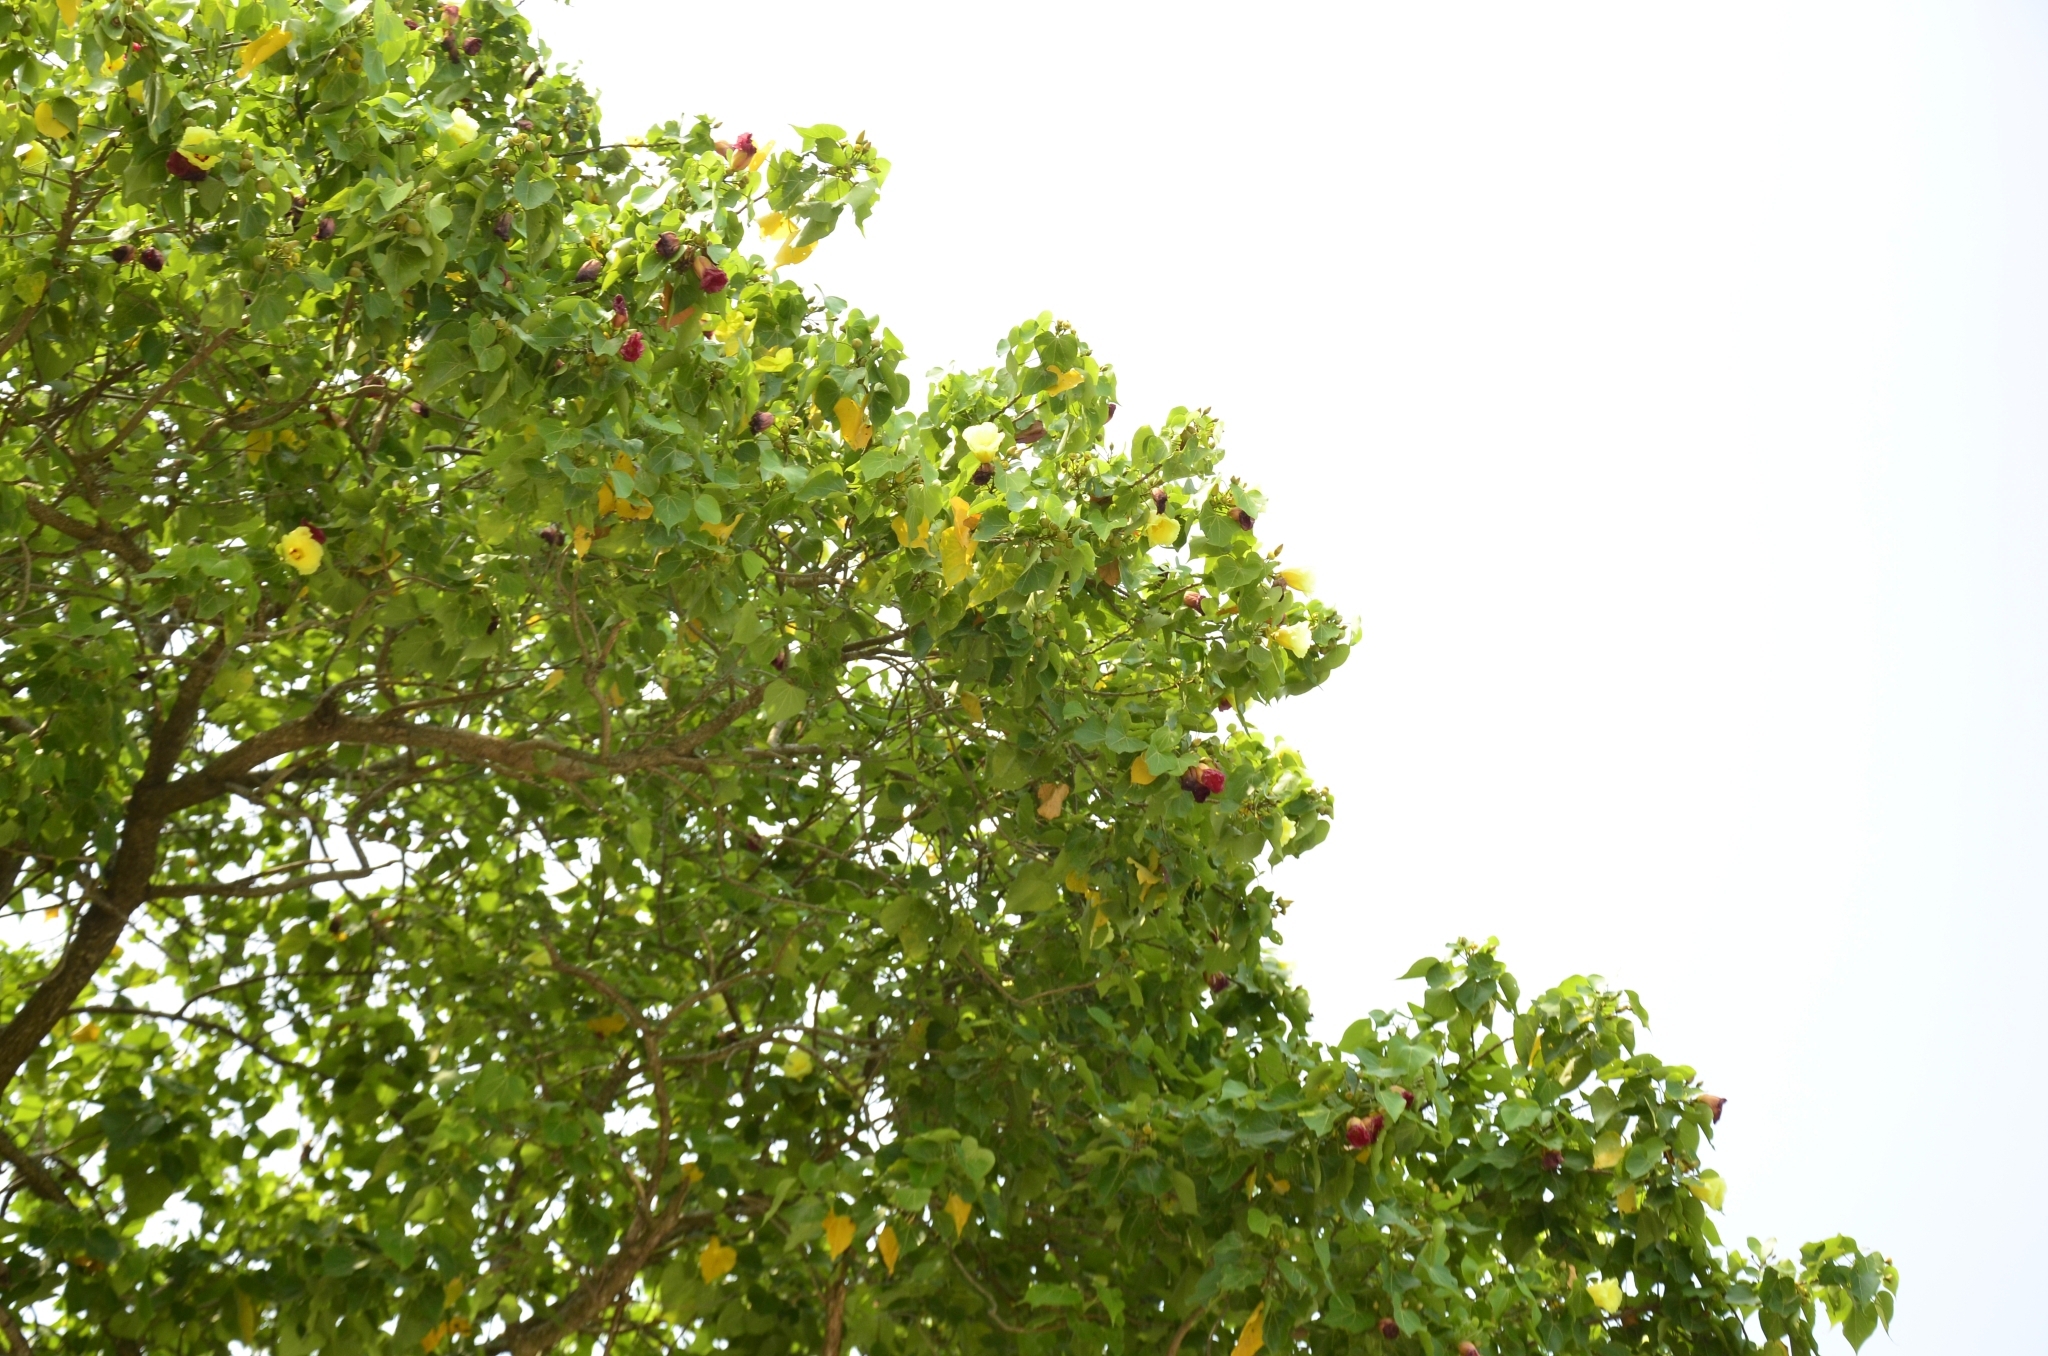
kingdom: Plantae
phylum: Tracheophyta
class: Magnoliopsida
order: Malvales
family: Malvaceae
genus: Thespesia
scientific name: Thespesia populnea
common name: Seaside mahoe
